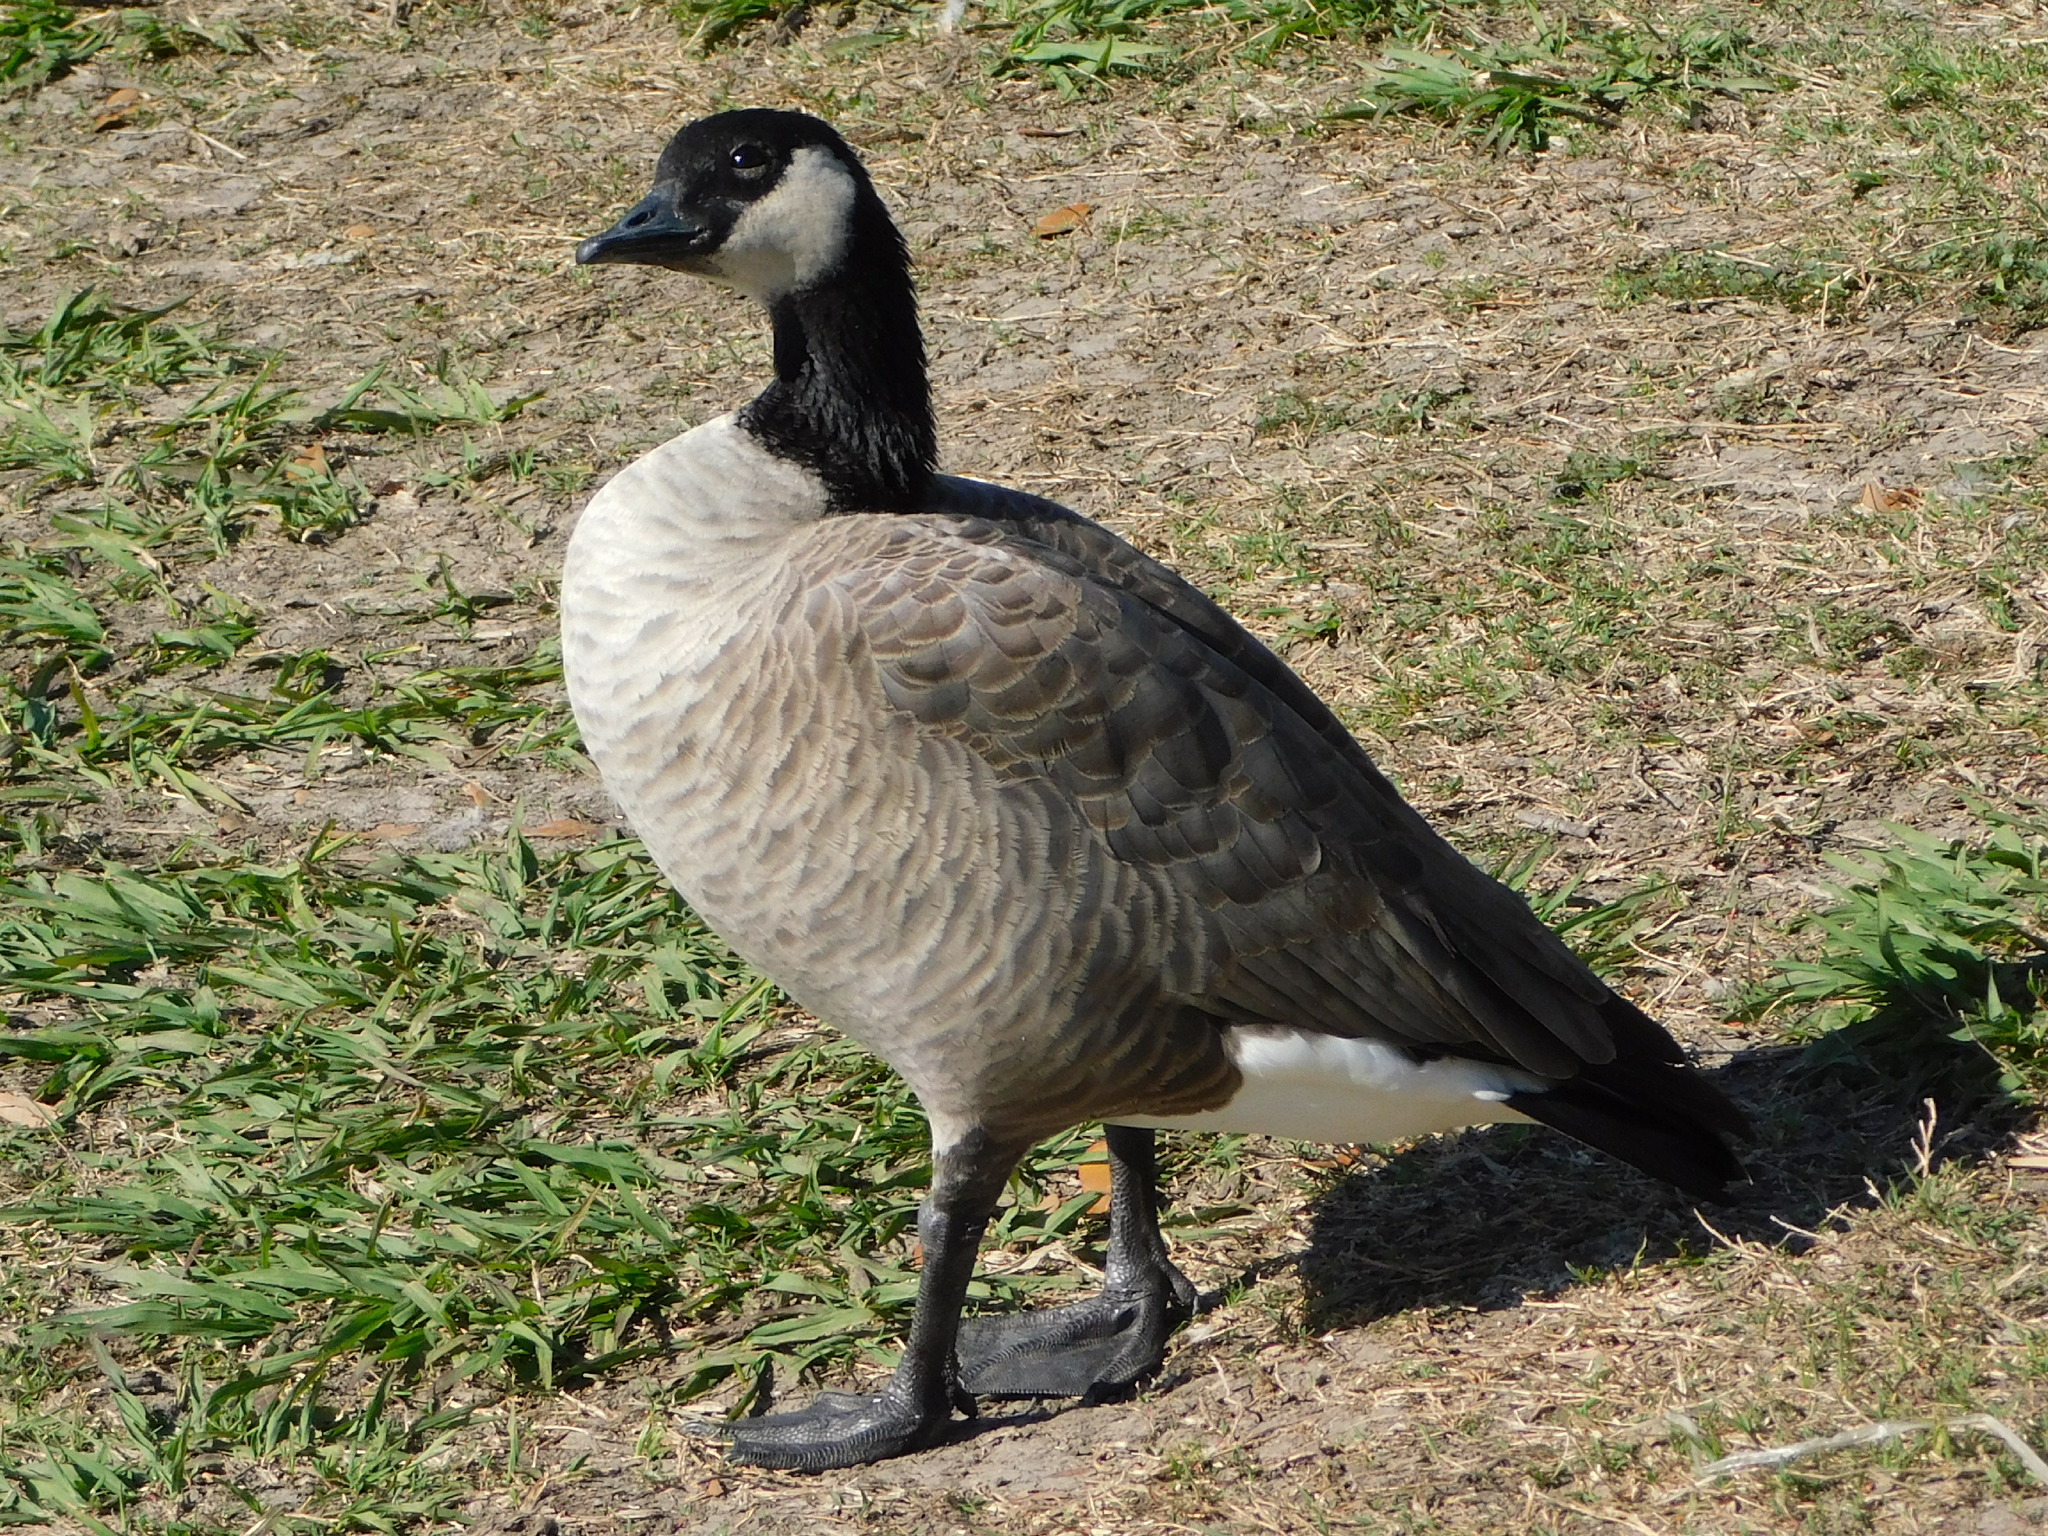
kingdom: Animalia
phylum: Chordata
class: Aves
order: Anseriformes
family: Anatidae
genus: Branta
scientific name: Branta hutchinsii
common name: Cackling goose
